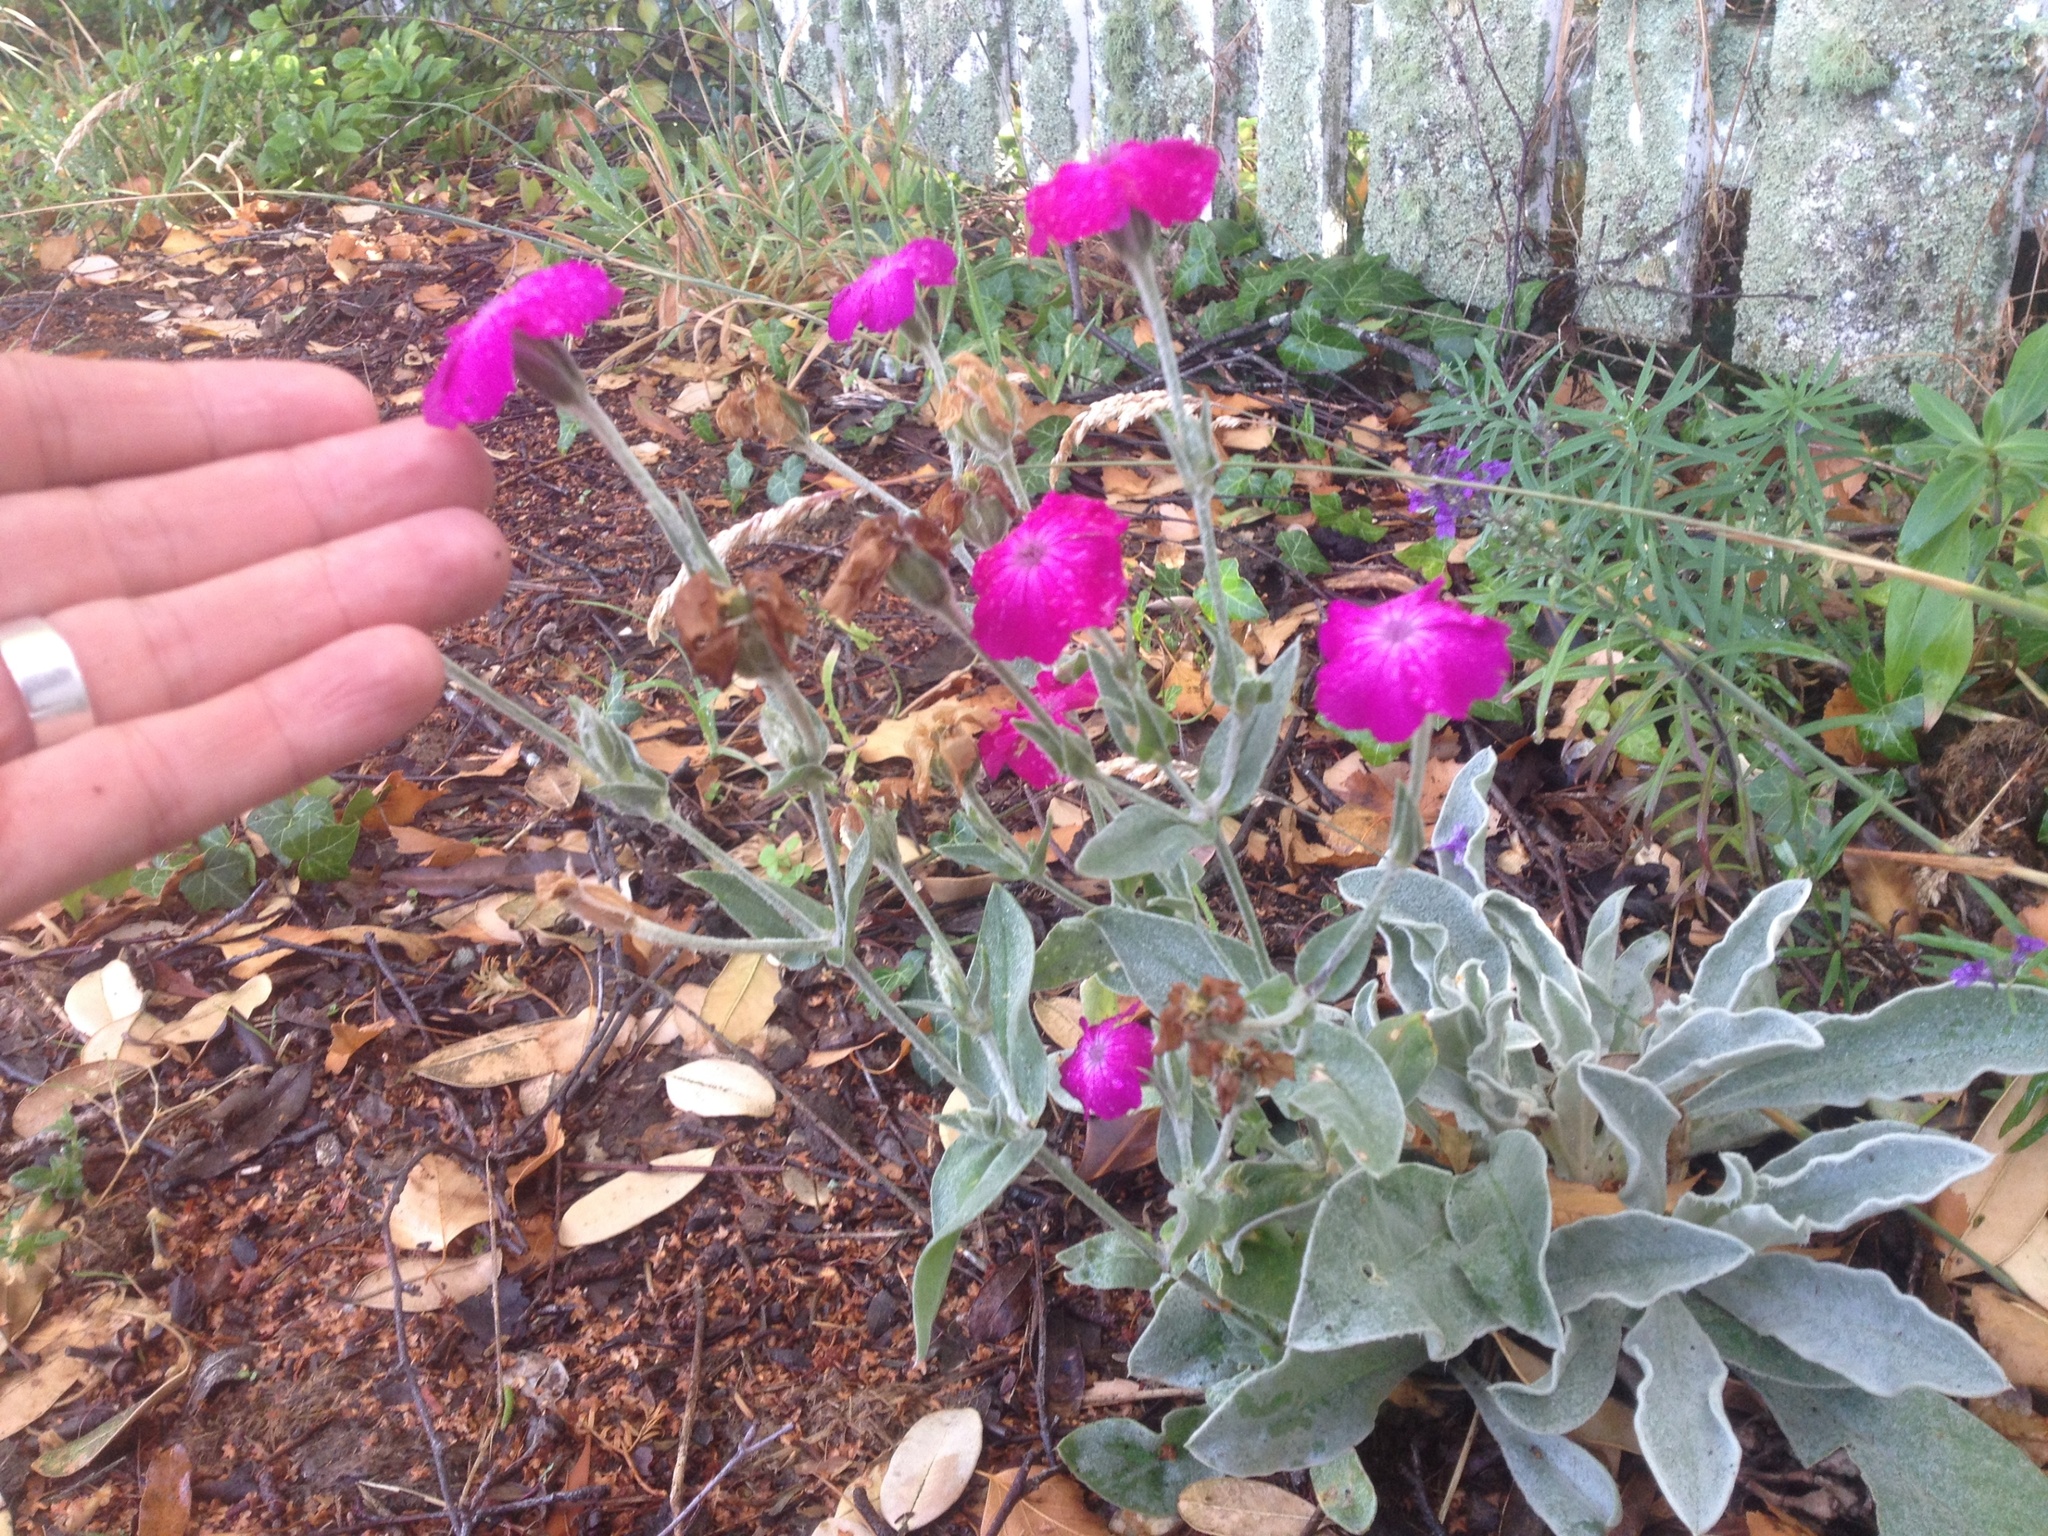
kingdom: Plantae
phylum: Tracheophyta
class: Magnoliopsida
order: Caryophyllales
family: Caryophyllaceae
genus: Silene
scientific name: Silene coronaria
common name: Rose campion
